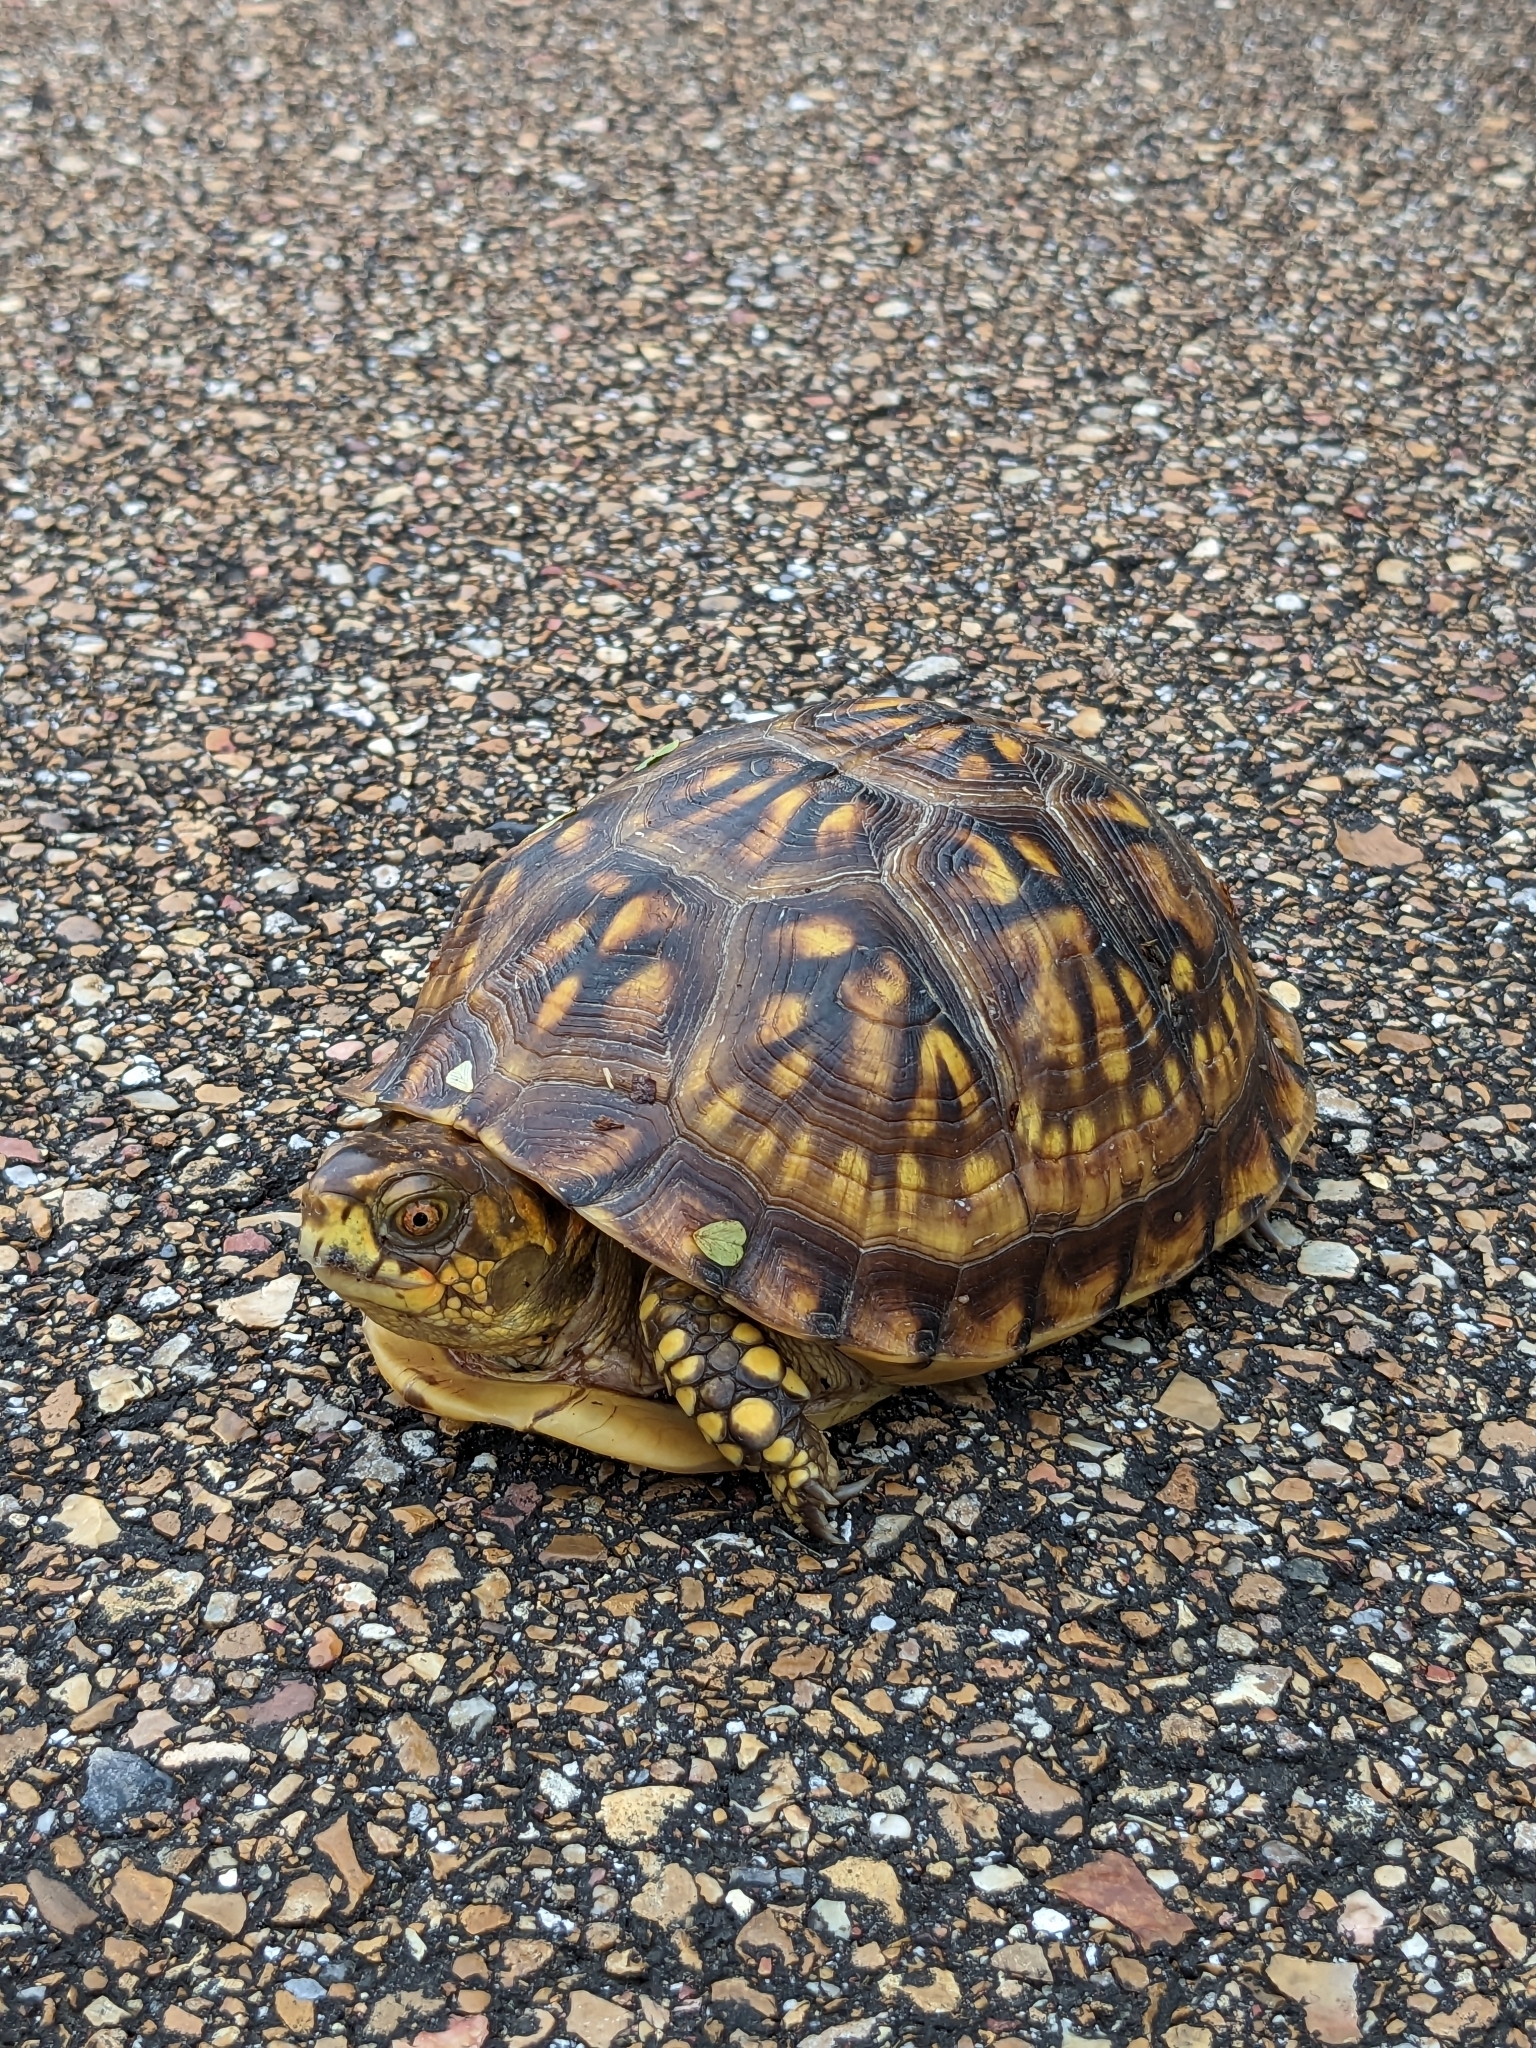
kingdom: Animalia
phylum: Chordata
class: Testudines
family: Emydidae
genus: Terrapene
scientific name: Terrapene carolina
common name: Common box turtle
